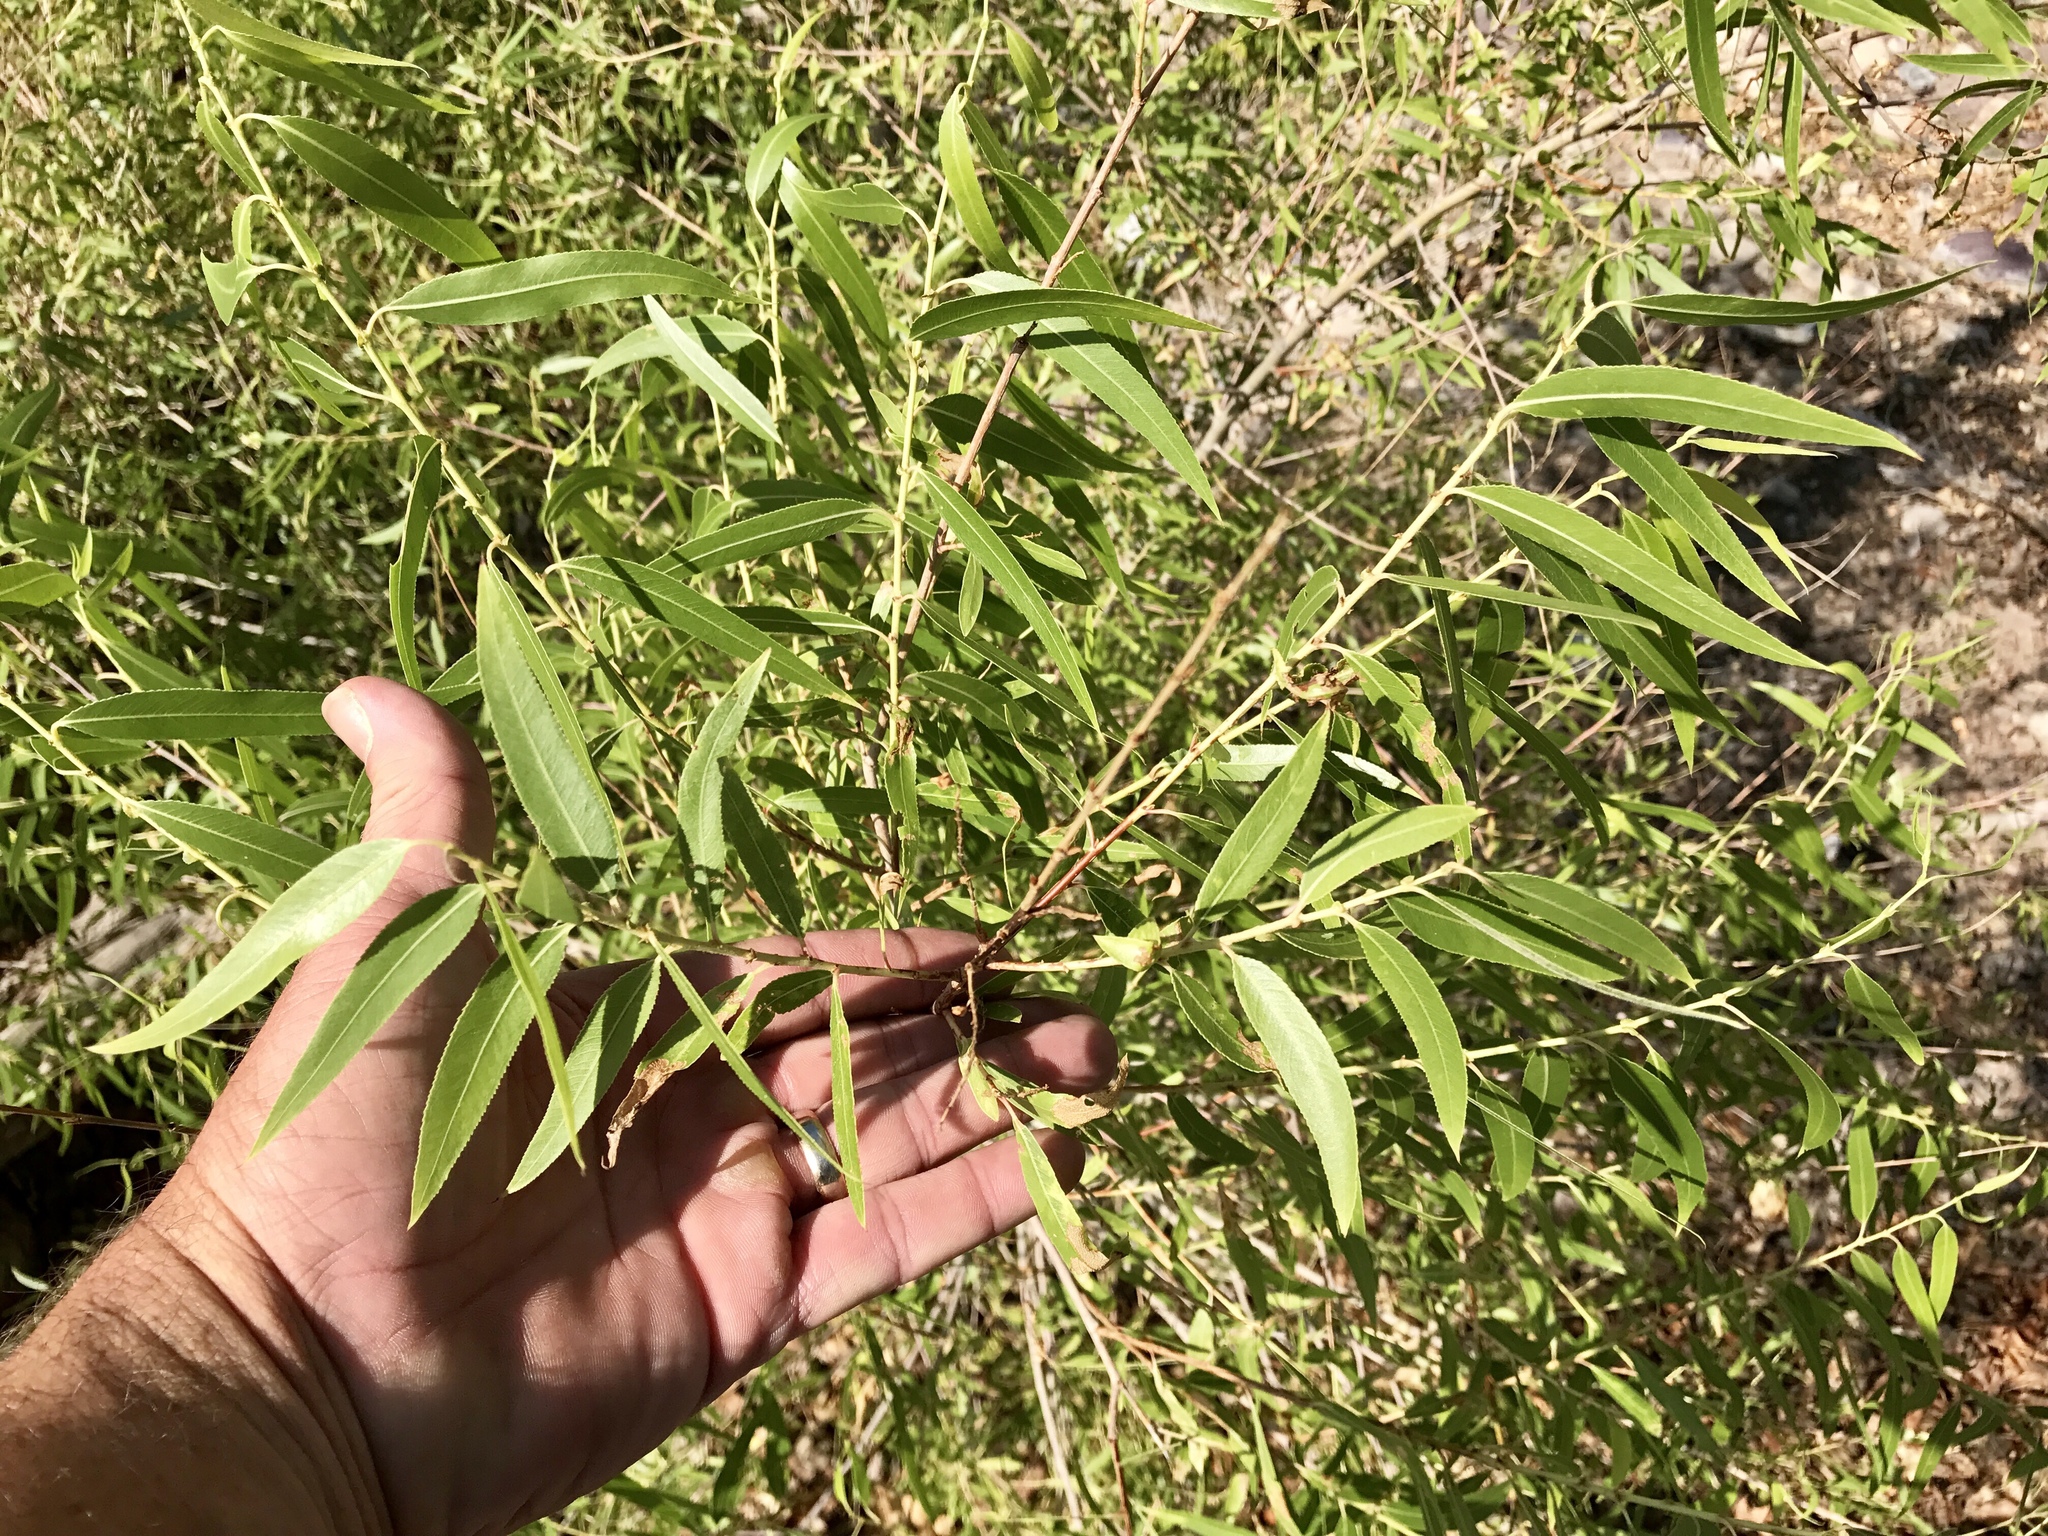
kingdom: Plantae
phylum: Tracheophyta
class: Magnoliopsida
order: Malpighiales
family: Salicaceae
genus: Salix
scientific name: Salix gooddingii
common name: Goodding's willow
